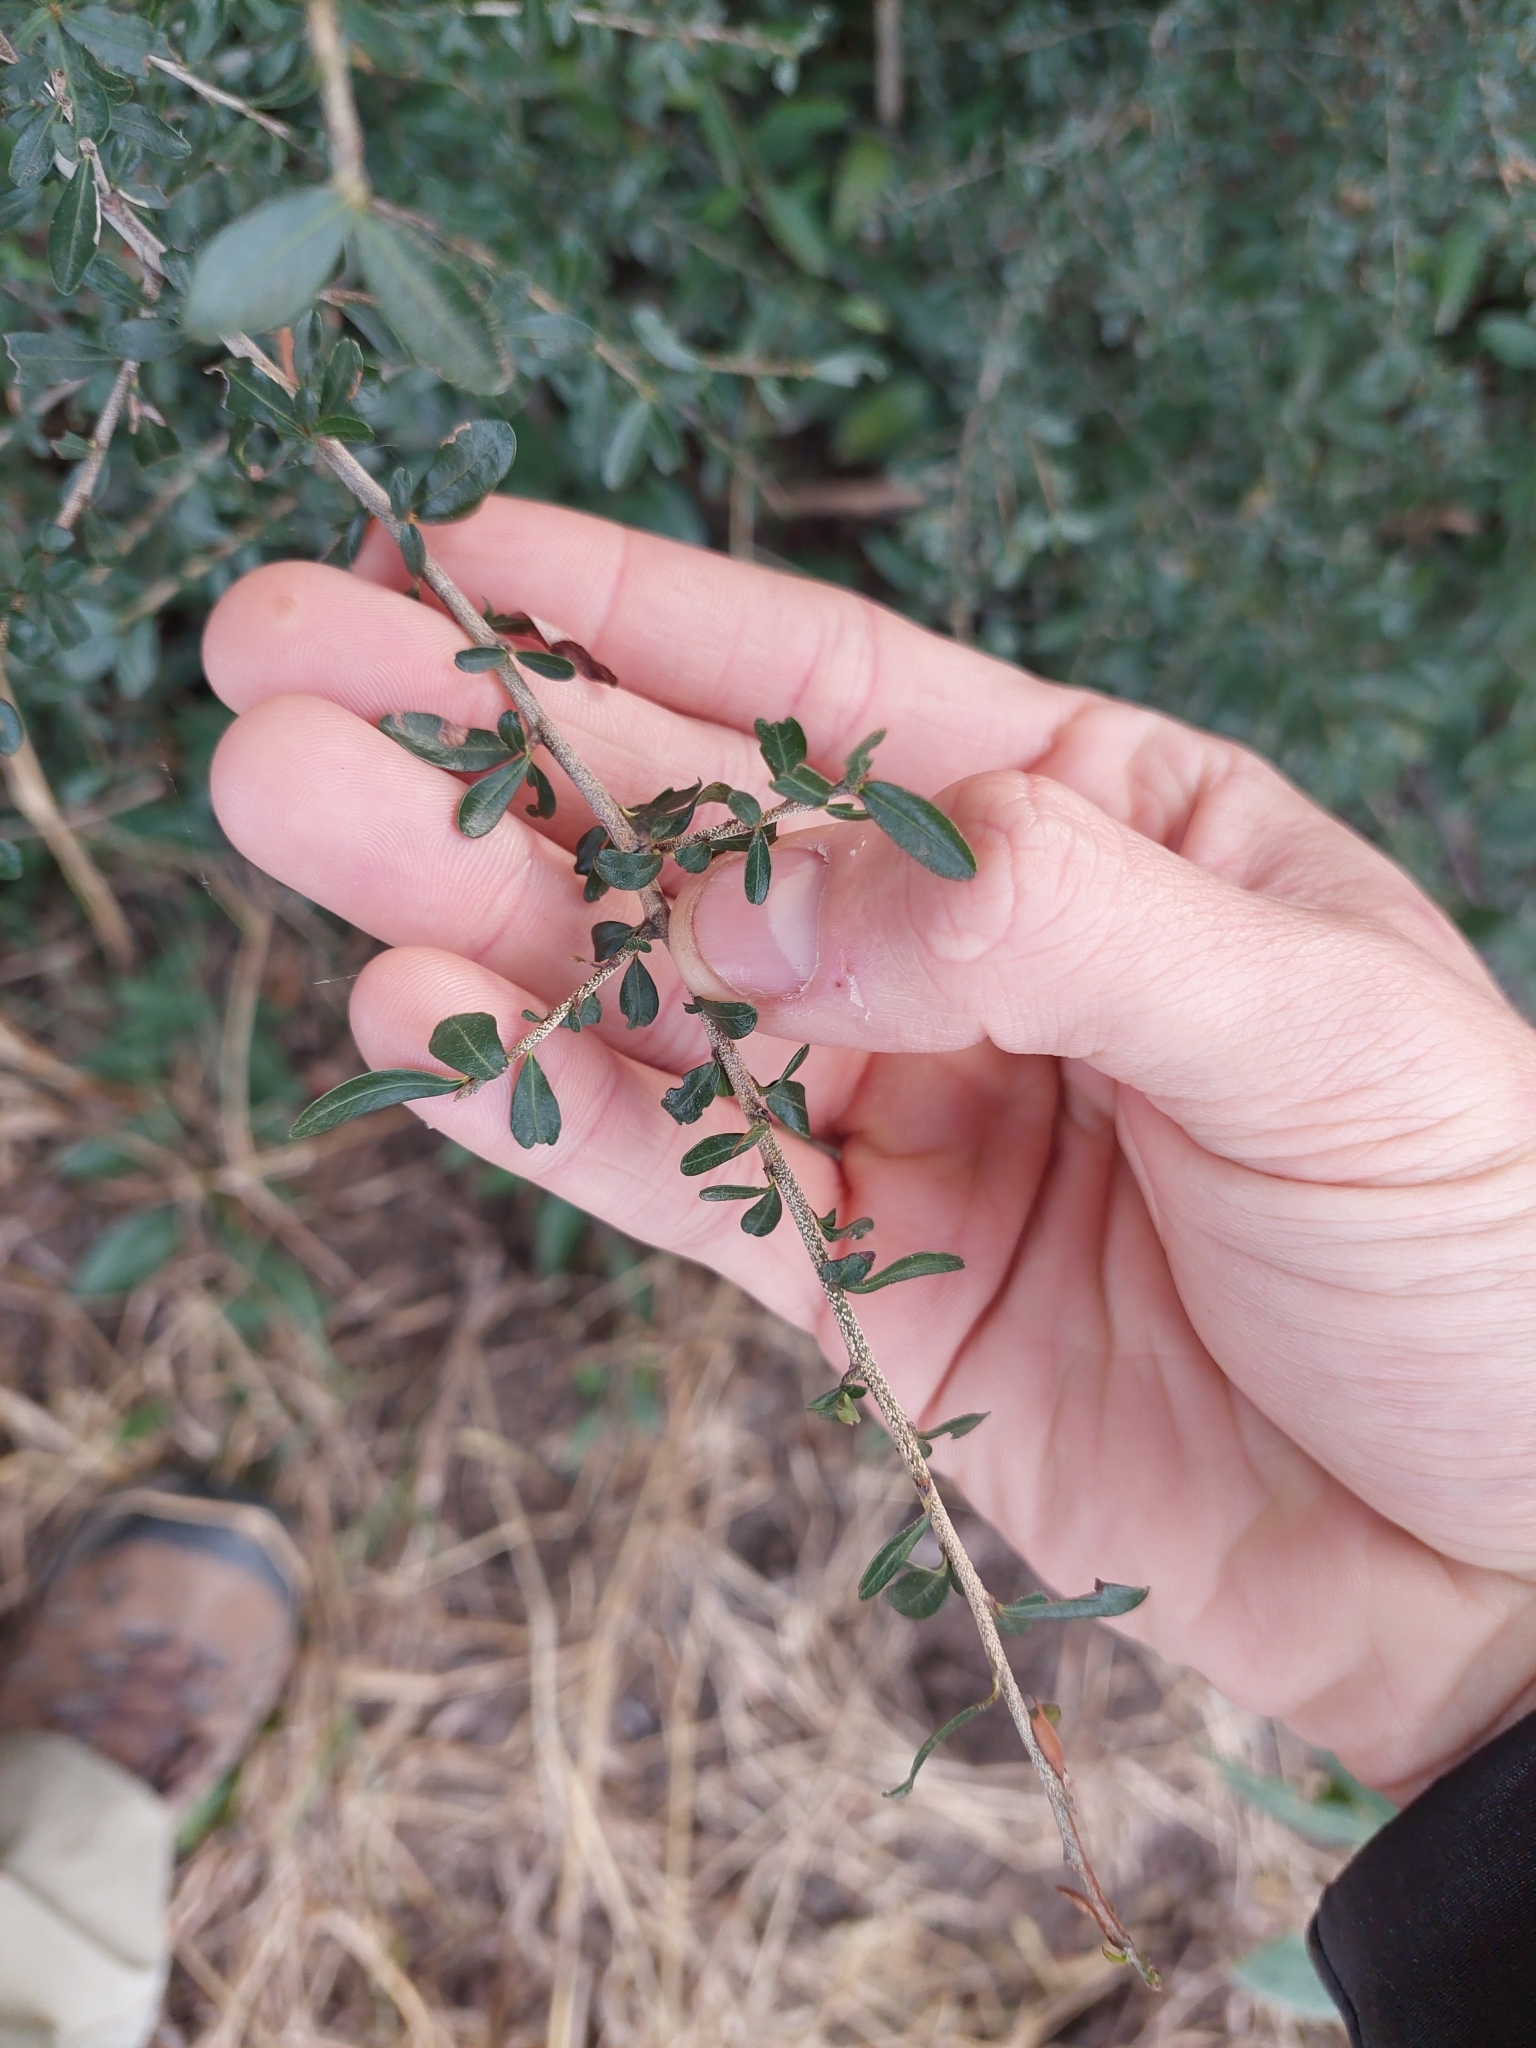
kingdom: Plantae
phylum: Tracheophyta
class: Magnoliopsida
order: Malpighiales
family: Erythroxylaceae
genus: Erythroxylum
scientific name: Erythroxylum cuneifolium
